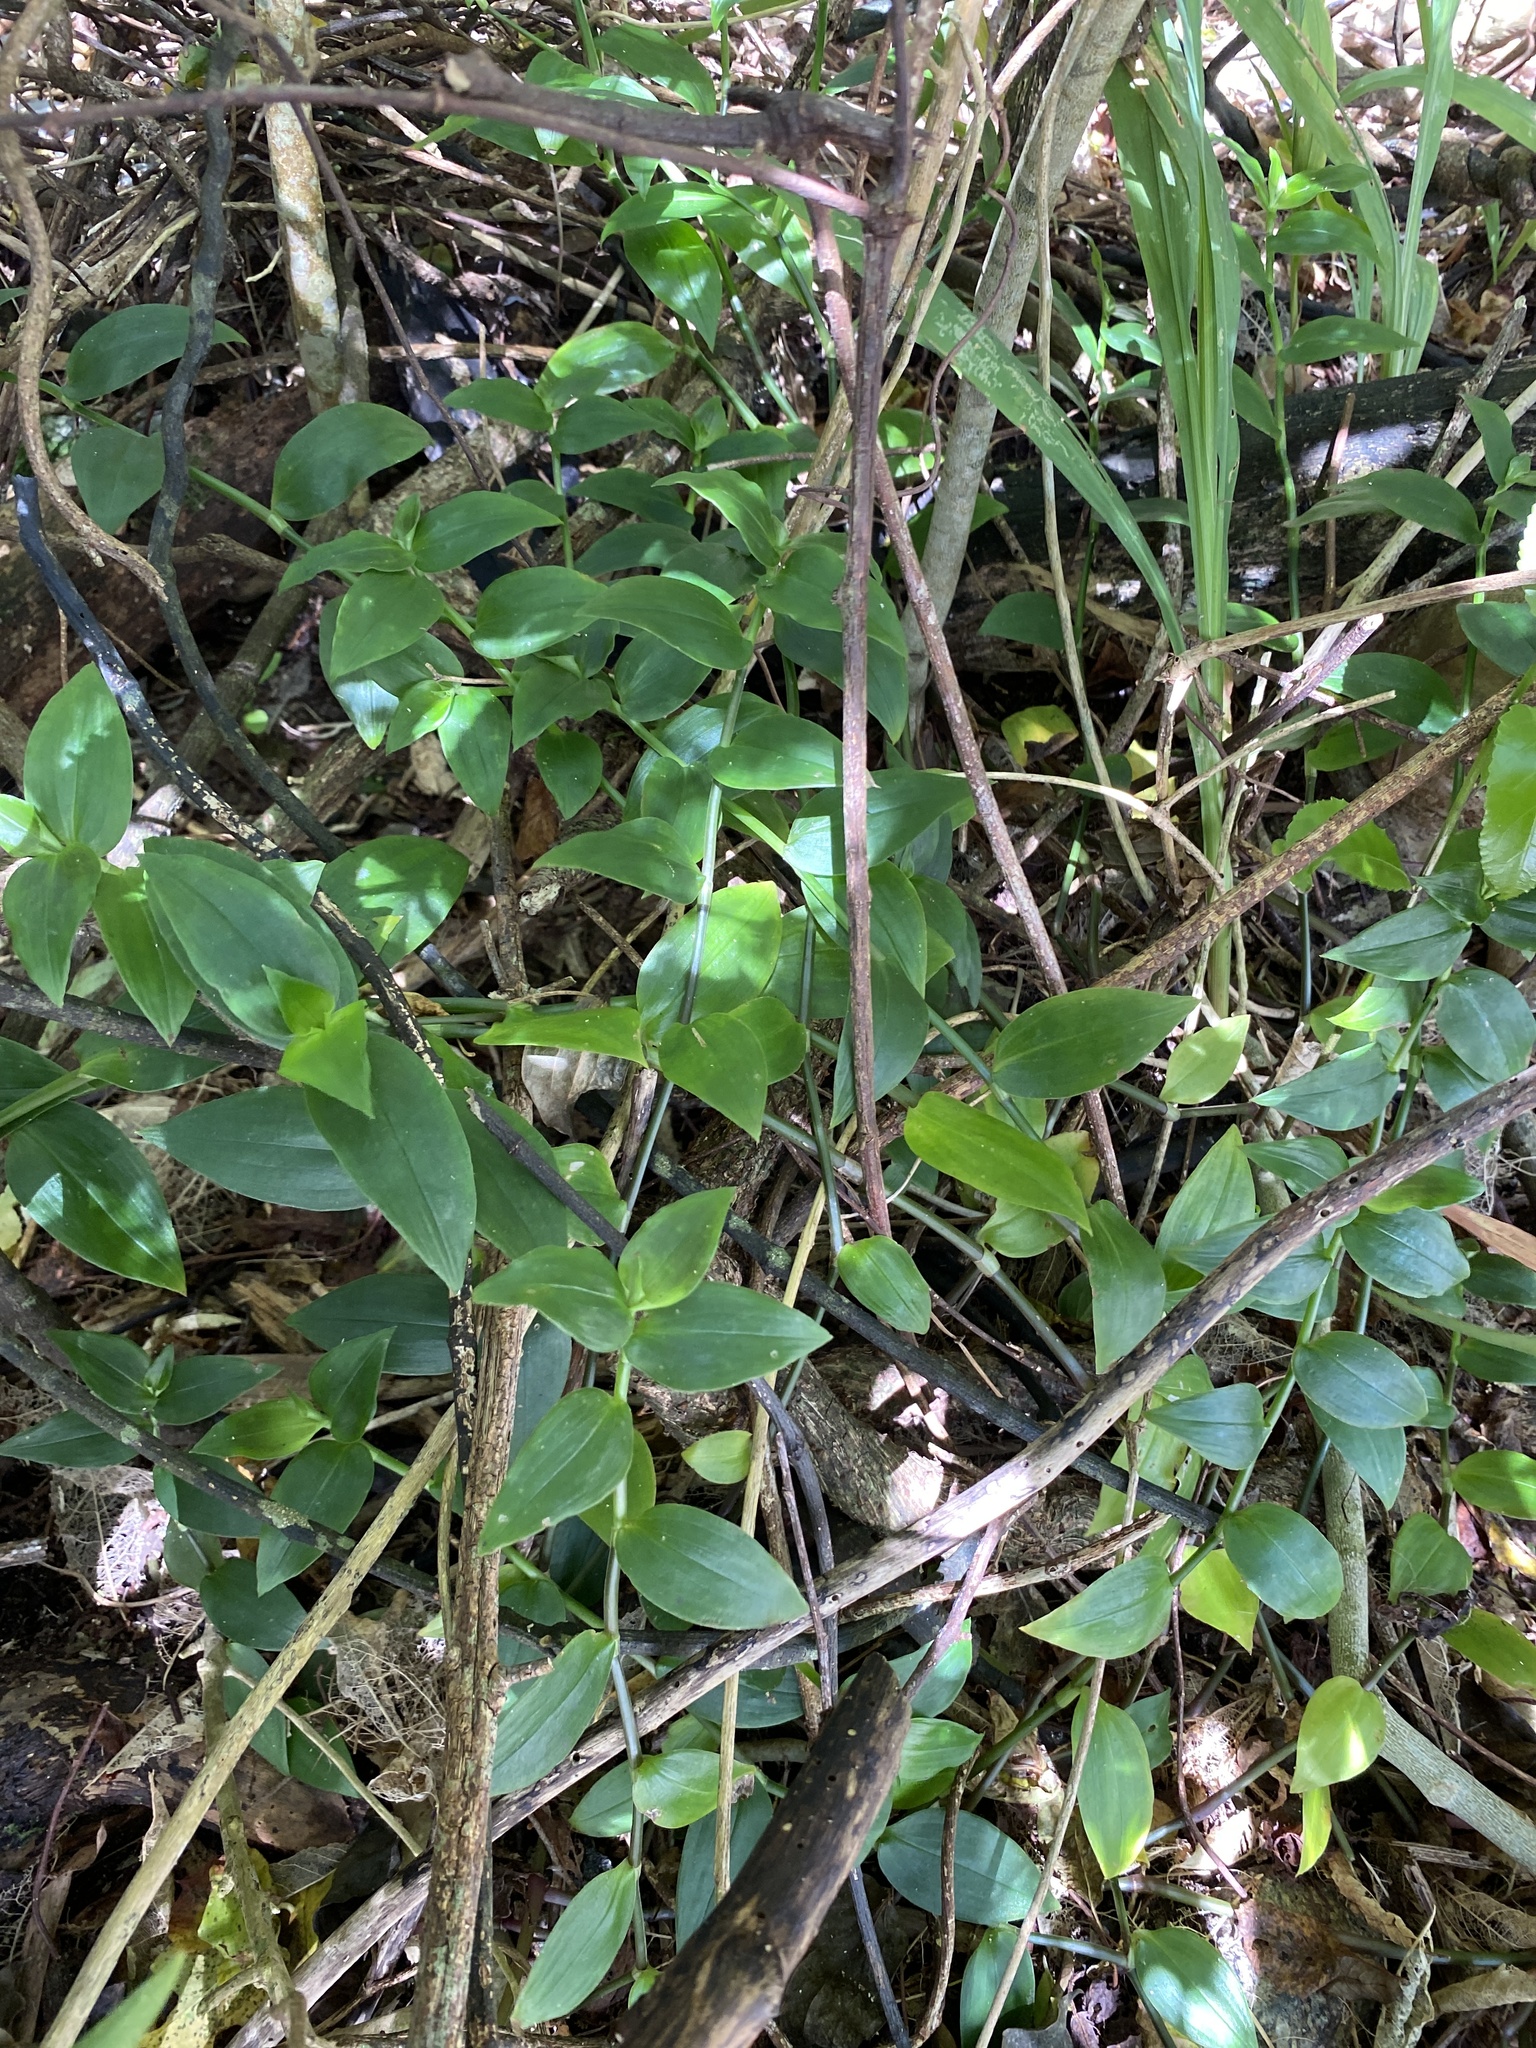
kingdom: Plantae
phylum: Tracheophyta
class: Liliopsida
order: Commelinales
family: Commelinaceae
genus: Tradescantia
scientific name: Tradescantia fluminensis
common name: Wandering-jew
